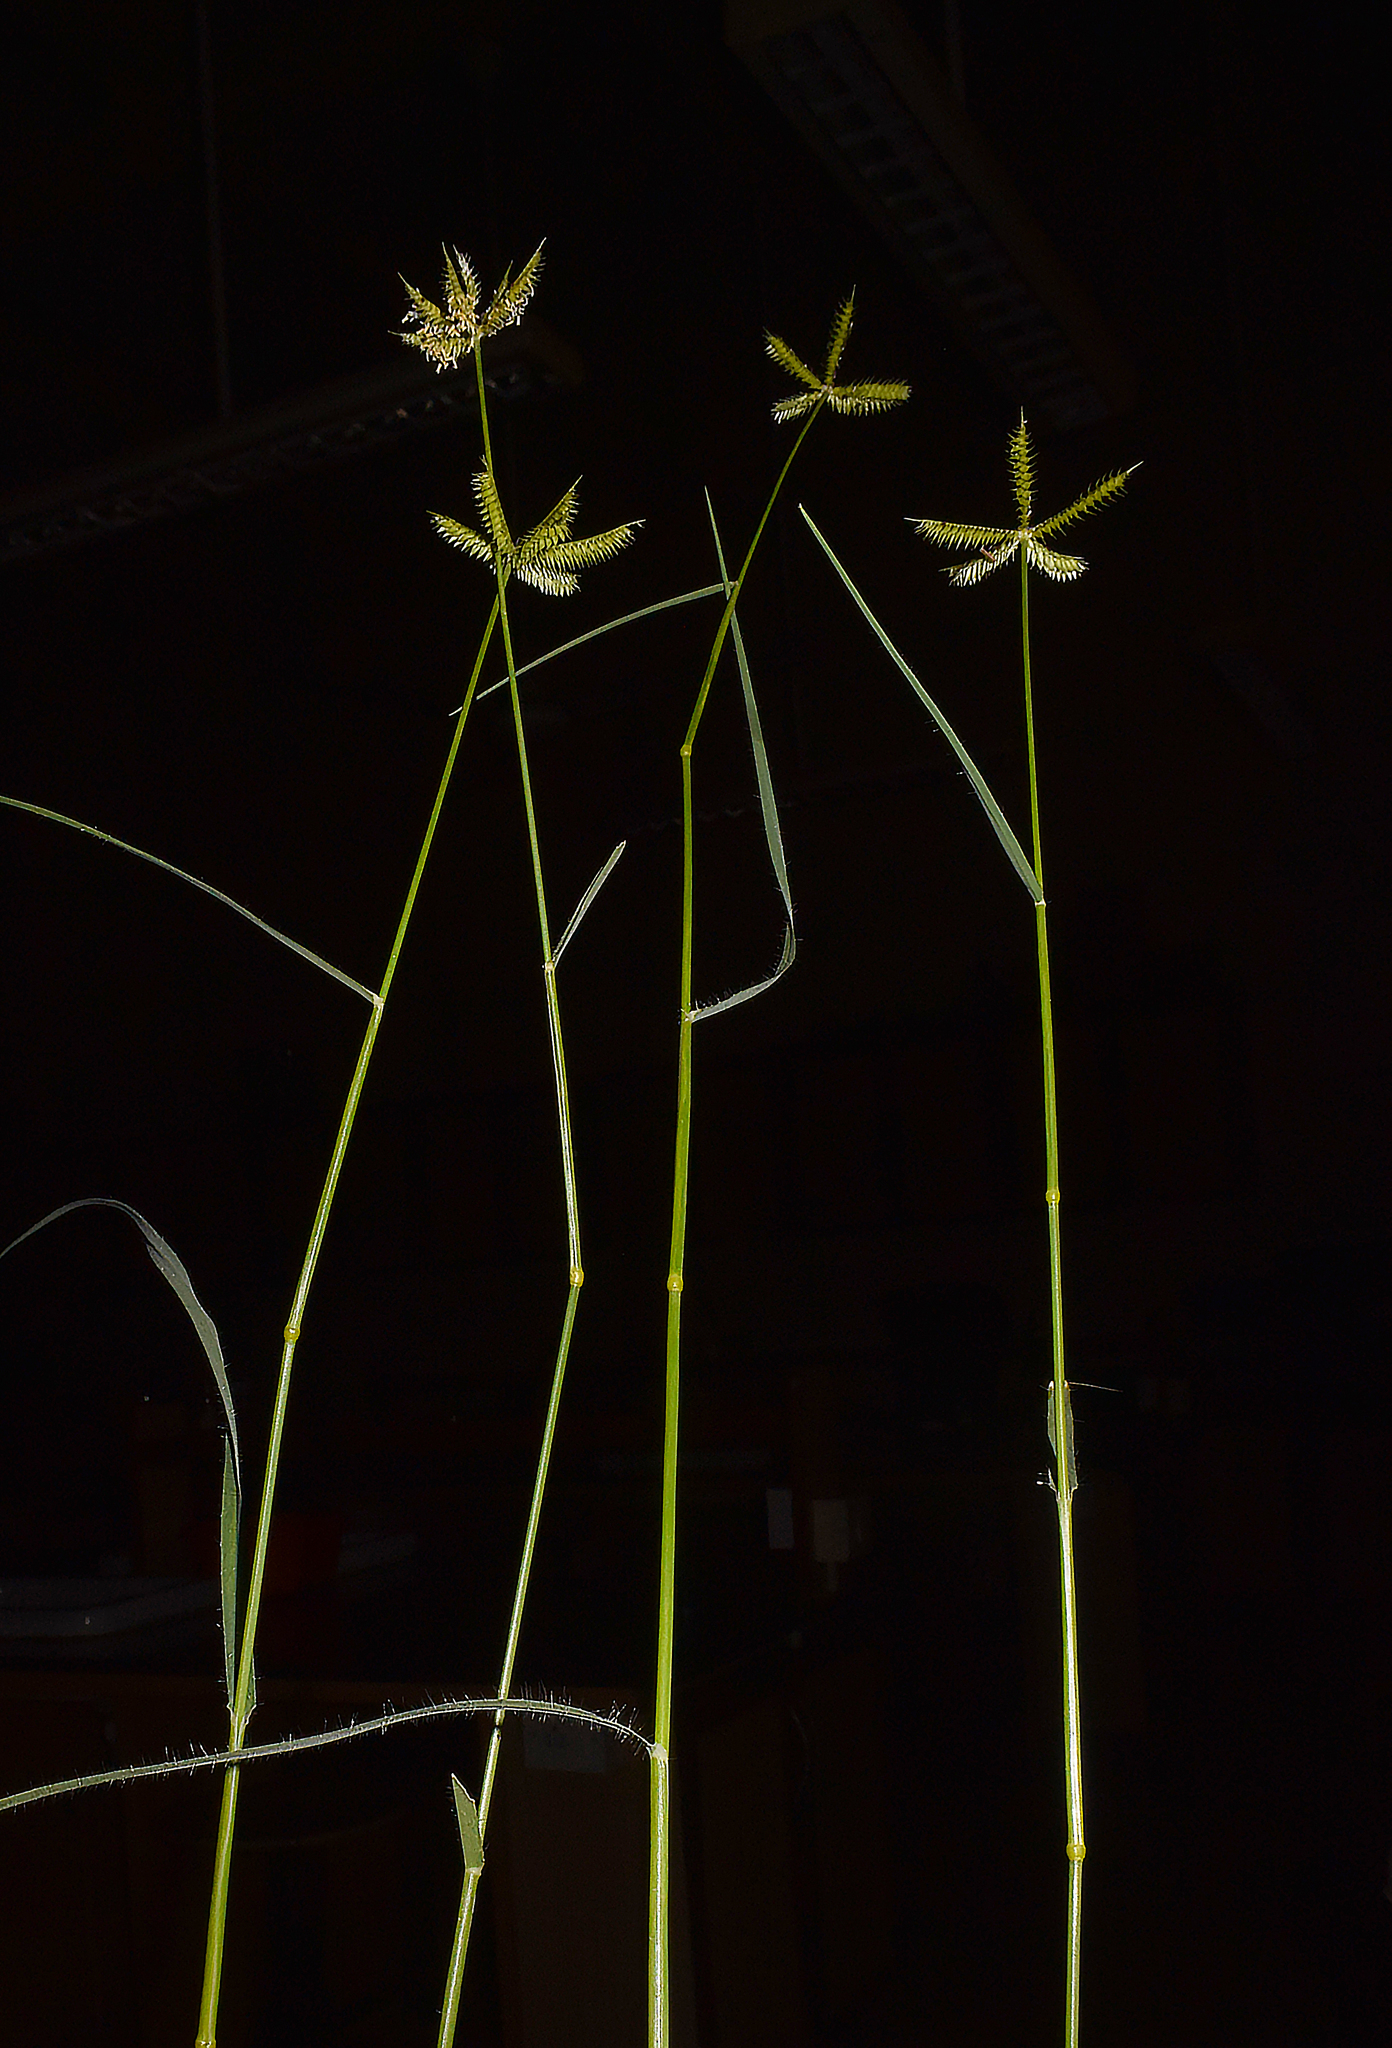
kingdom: Plantae
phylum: Tracheophyta
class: Liliopsida
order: Poales
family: Poaceae
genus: Dactyloctenium
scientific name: Dactyloctenium scindicum
